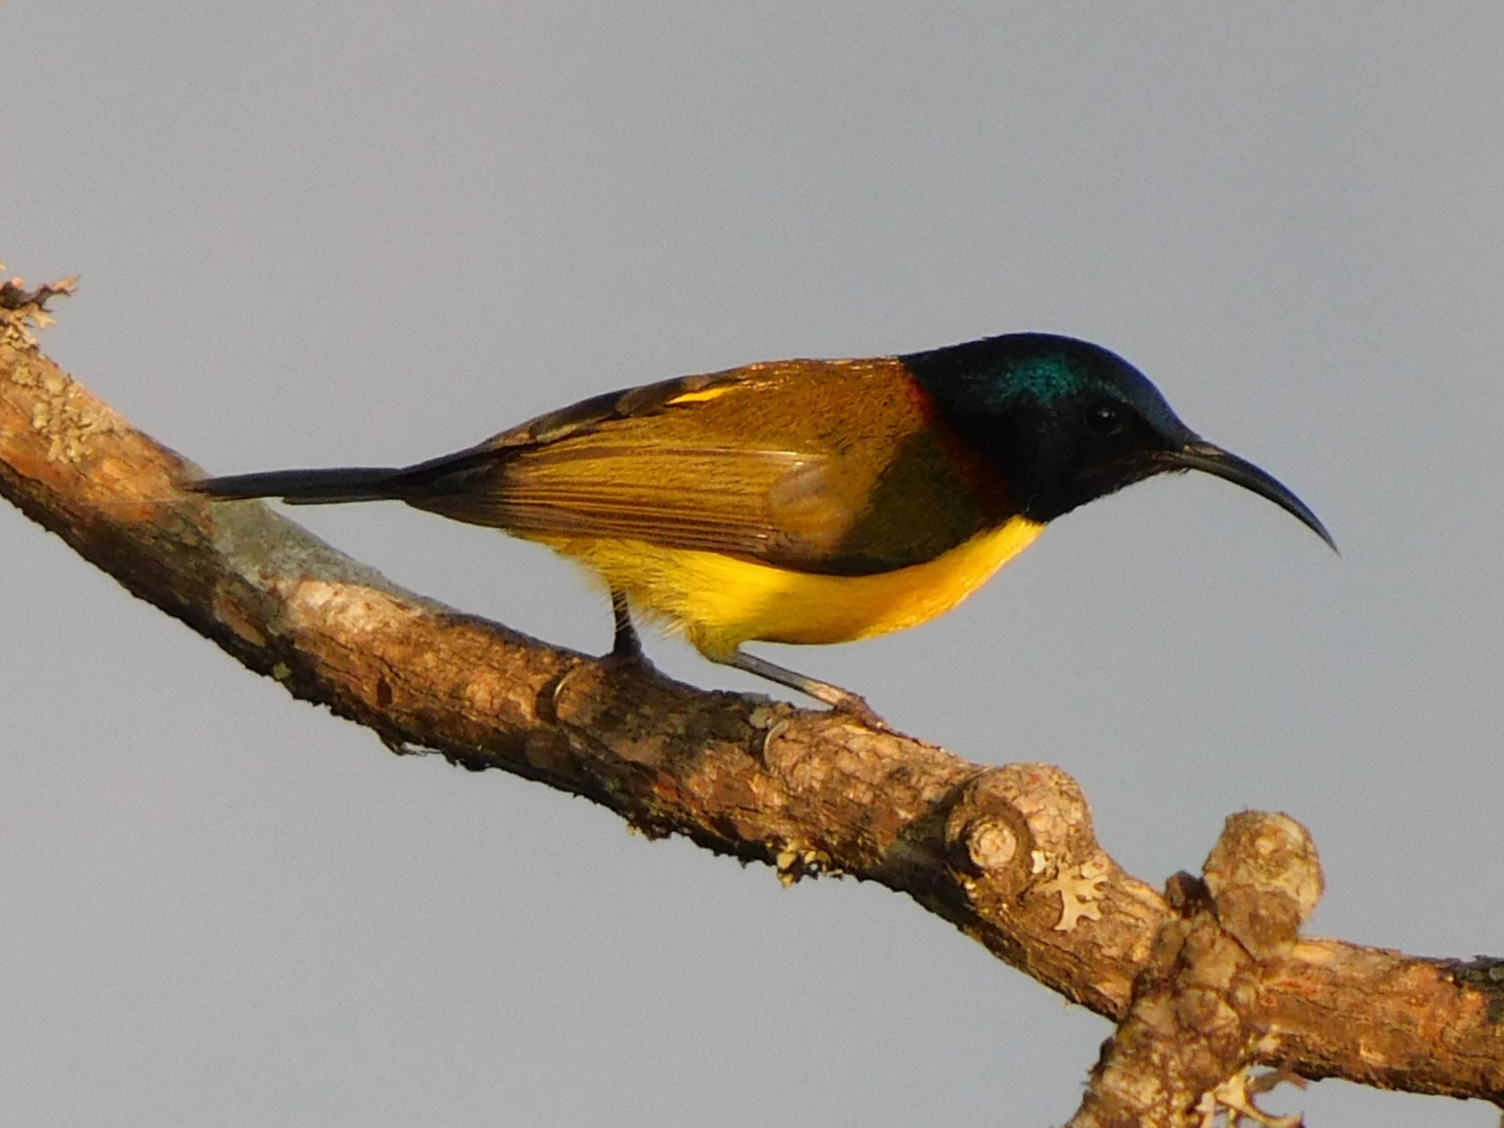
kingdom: Animalia
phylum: Chordata
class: Aves
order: Passeriformes
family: Nectariniidae
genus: Aethopyga
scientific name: Aethopyga nipalensis
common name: Green-tailed sunbird
